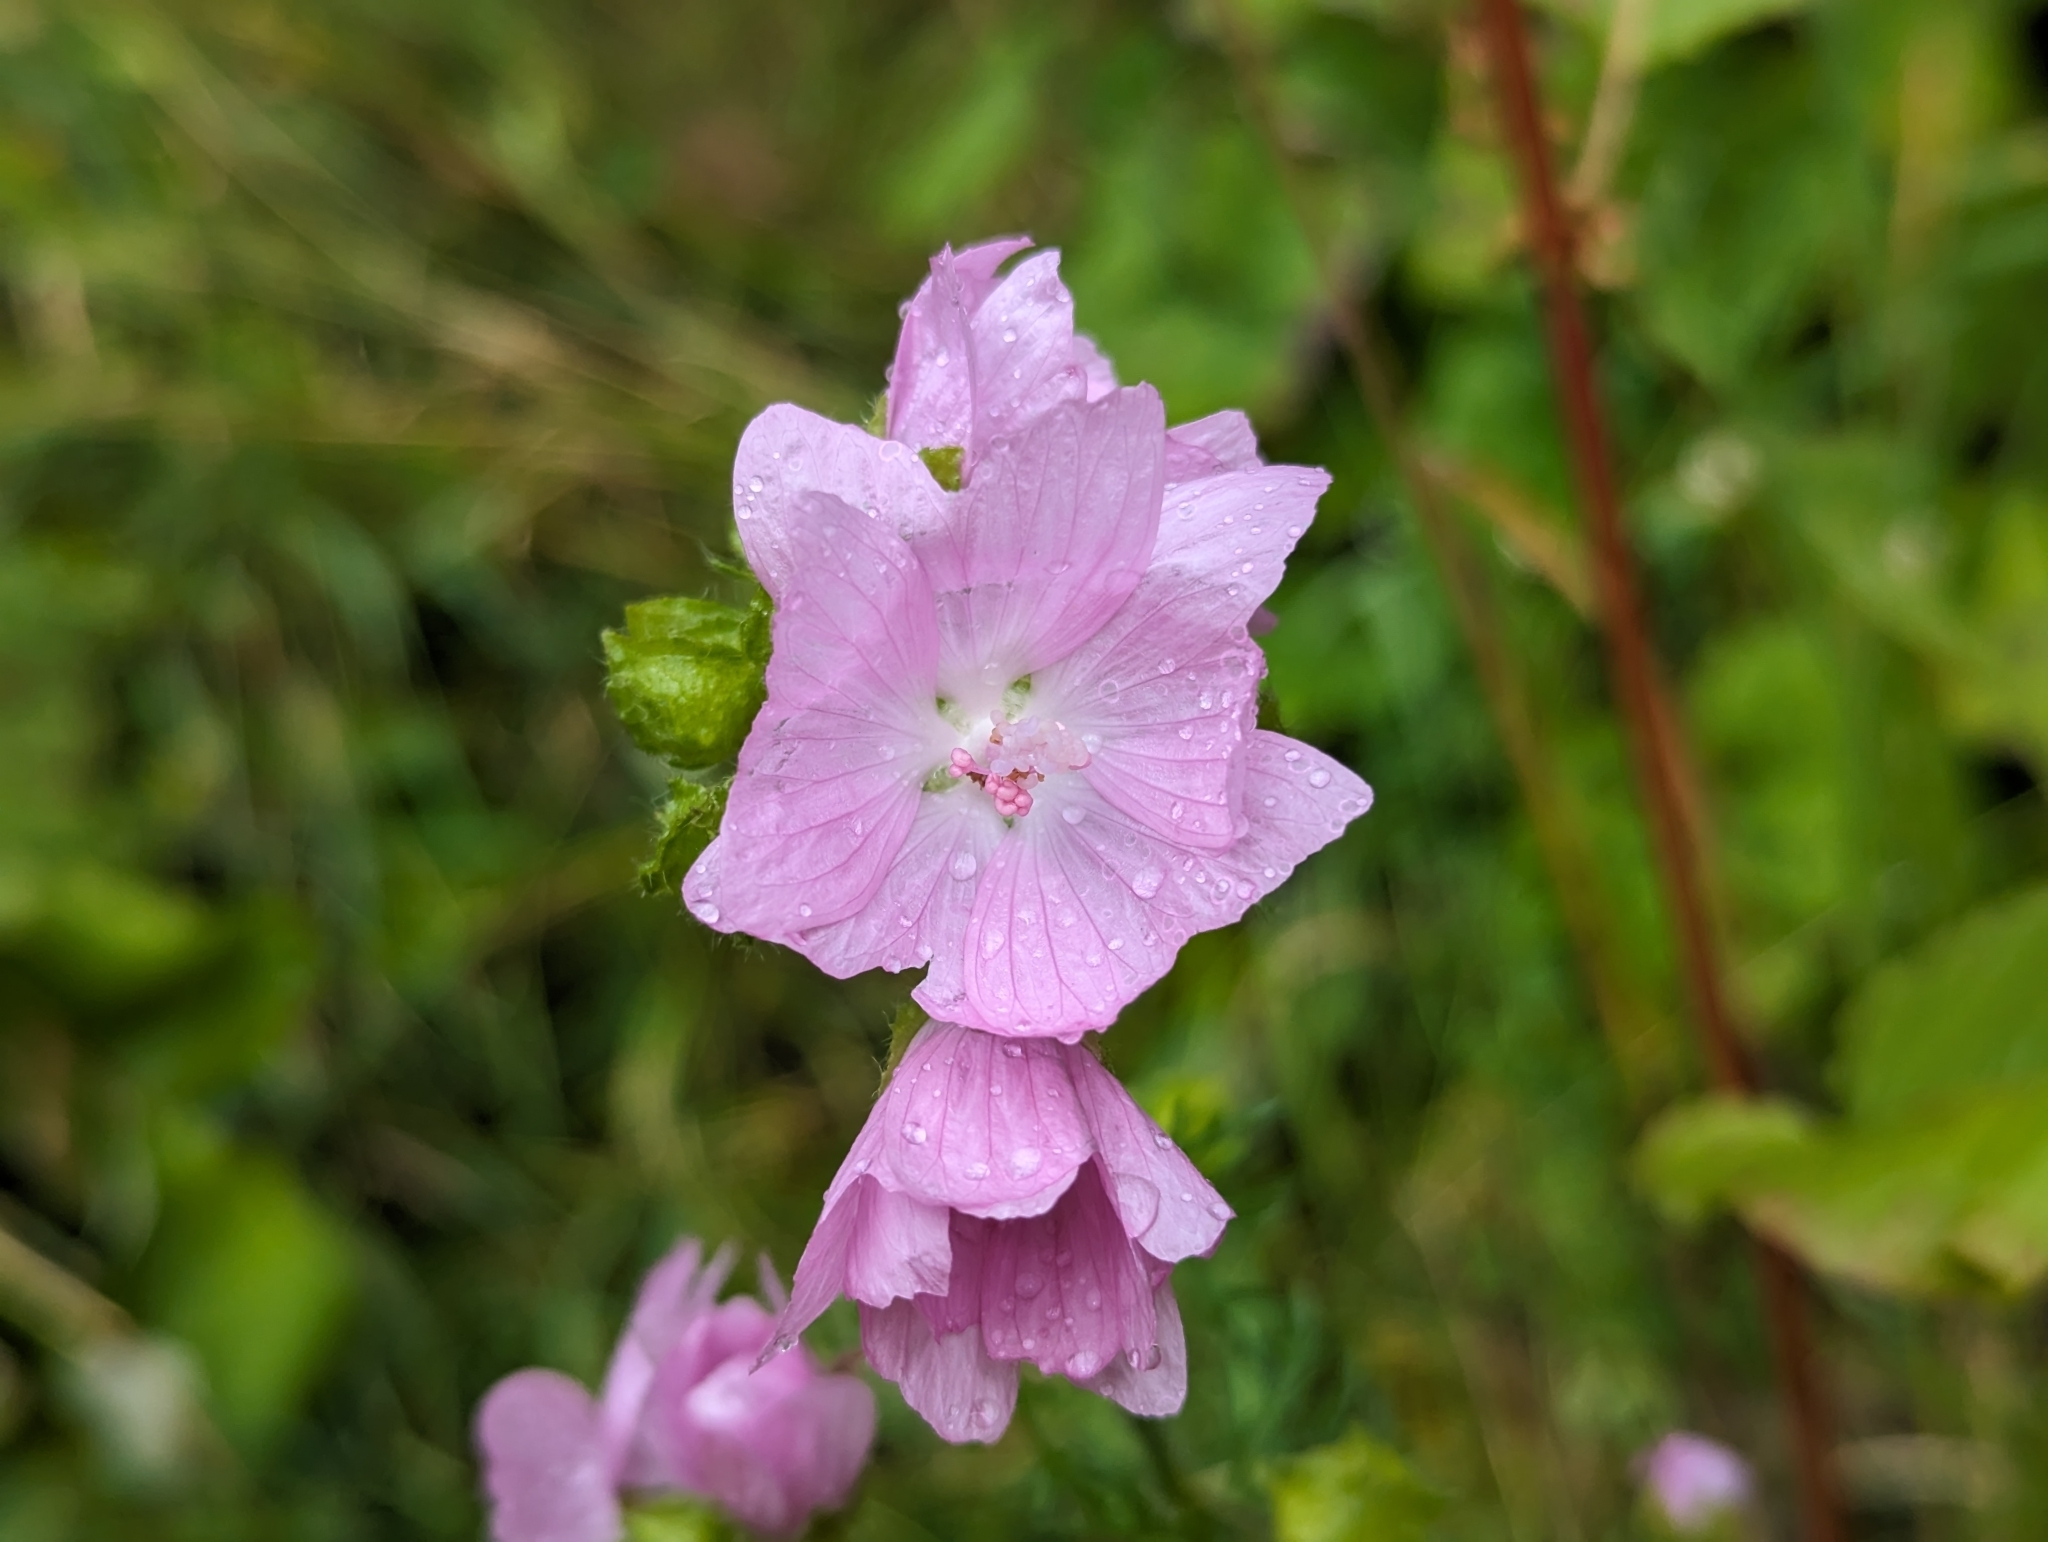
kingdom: Plantae
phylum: Tracheophyta
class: Magnoliopsida
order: Malvales
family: Malvaceae
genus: Malva
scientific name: Malva moschata
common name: Musk mallow
